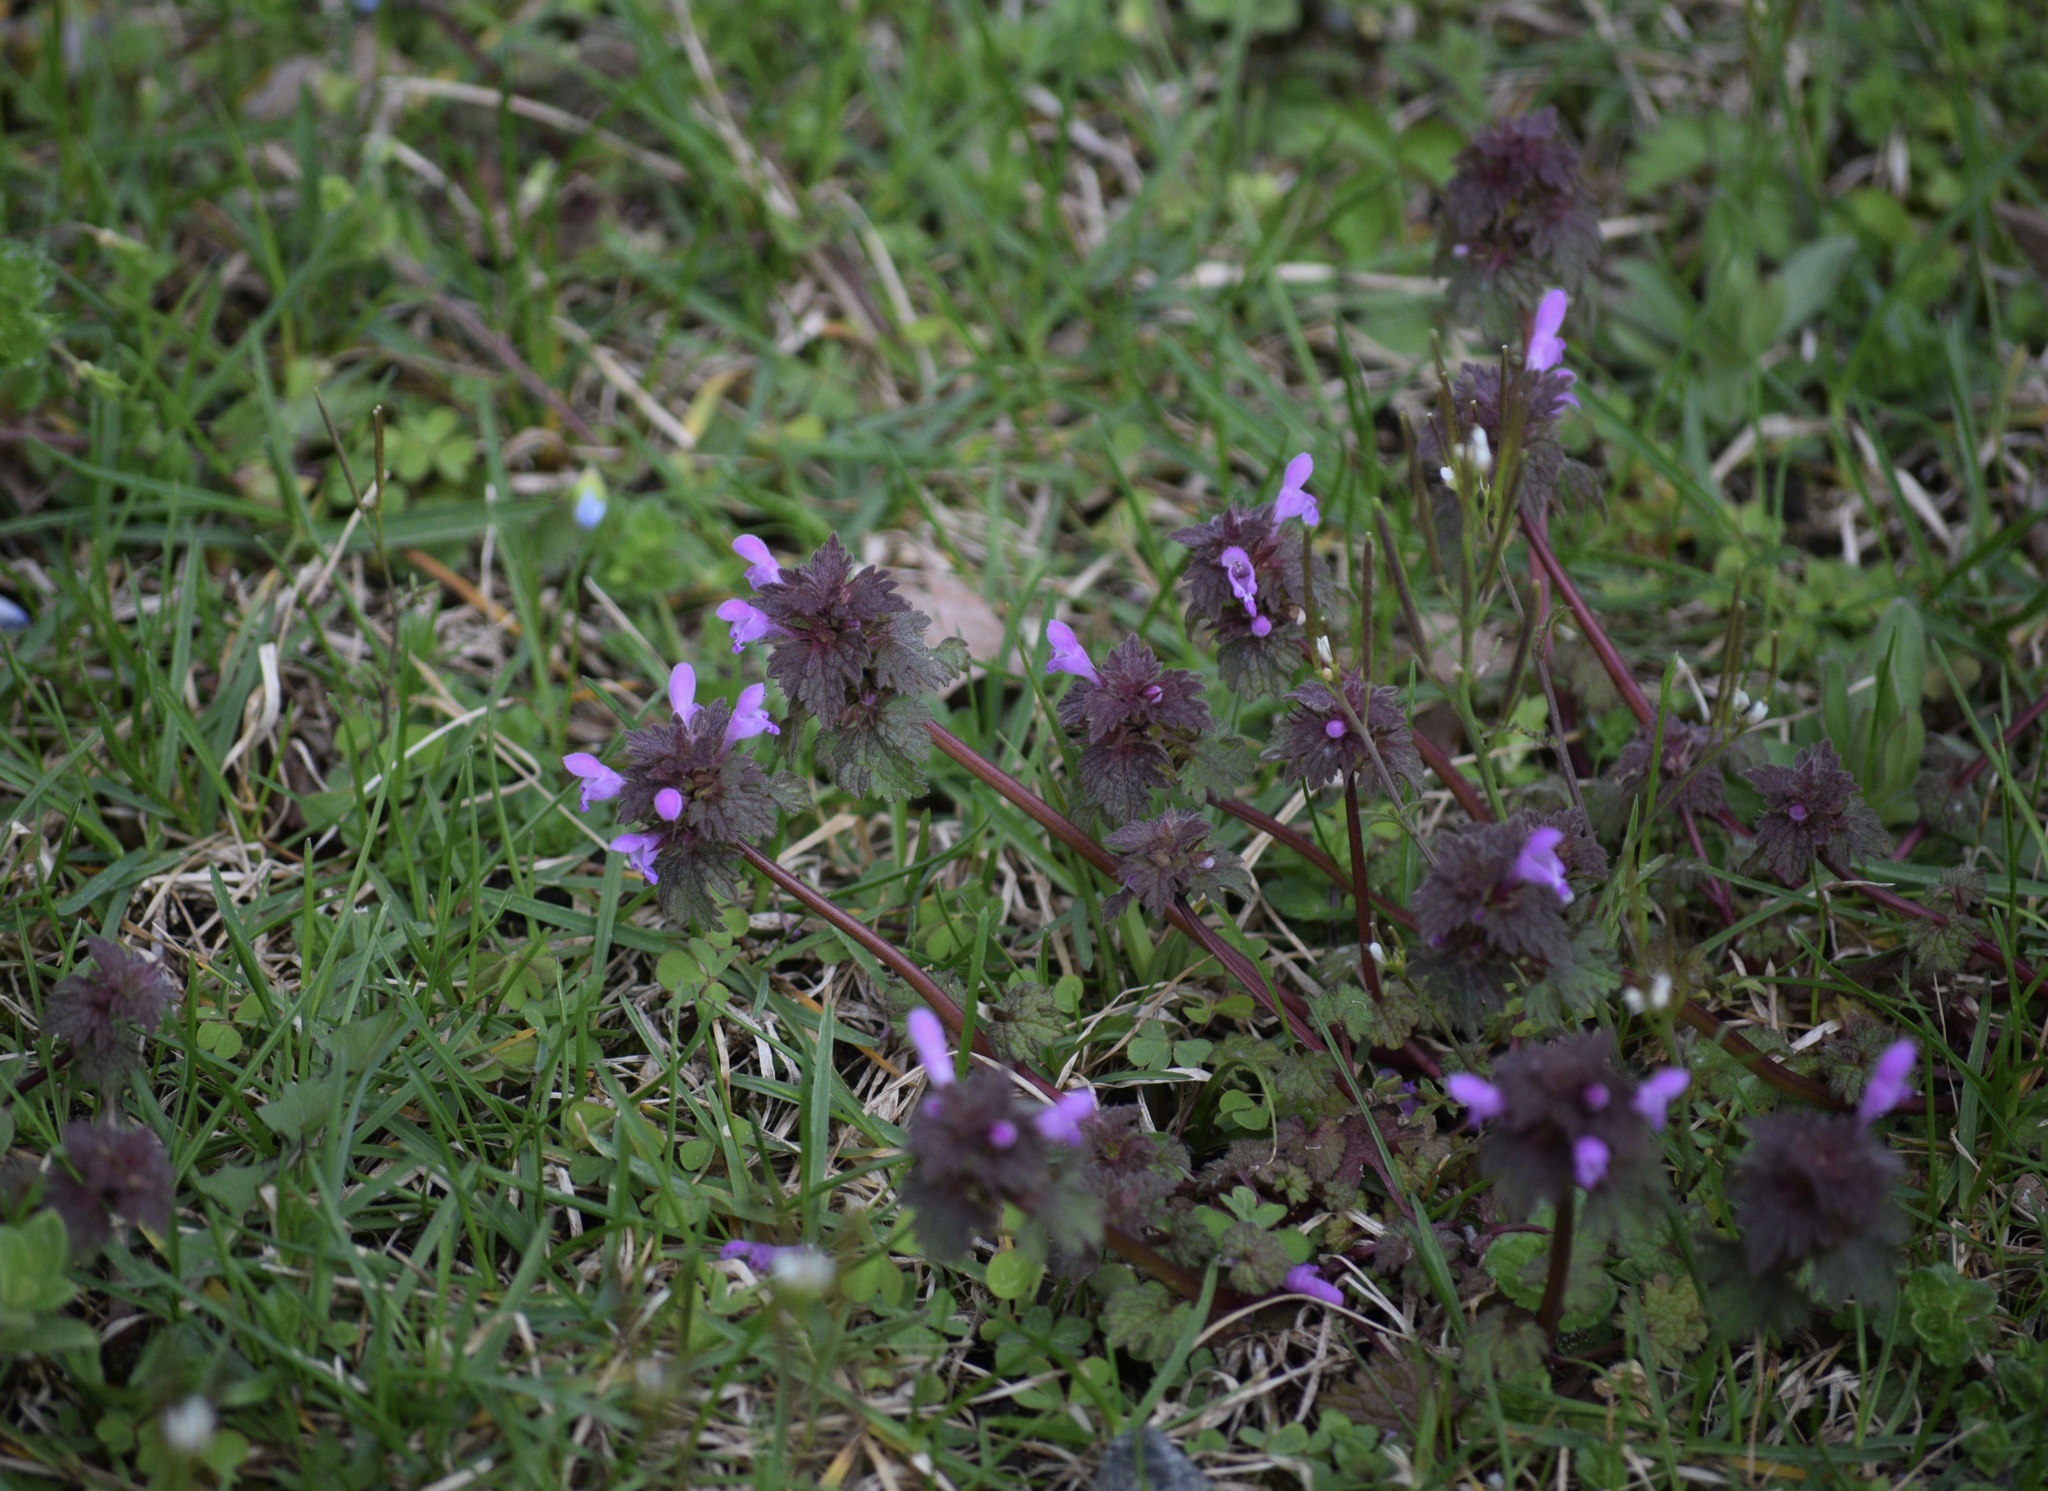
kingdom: Plantae
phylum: Tracheophyta
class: Magnoliopsida
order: Lamiales
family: Lamiaceae
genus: Lamium
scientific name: Lamium purpureum
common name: Red dead-nettle
